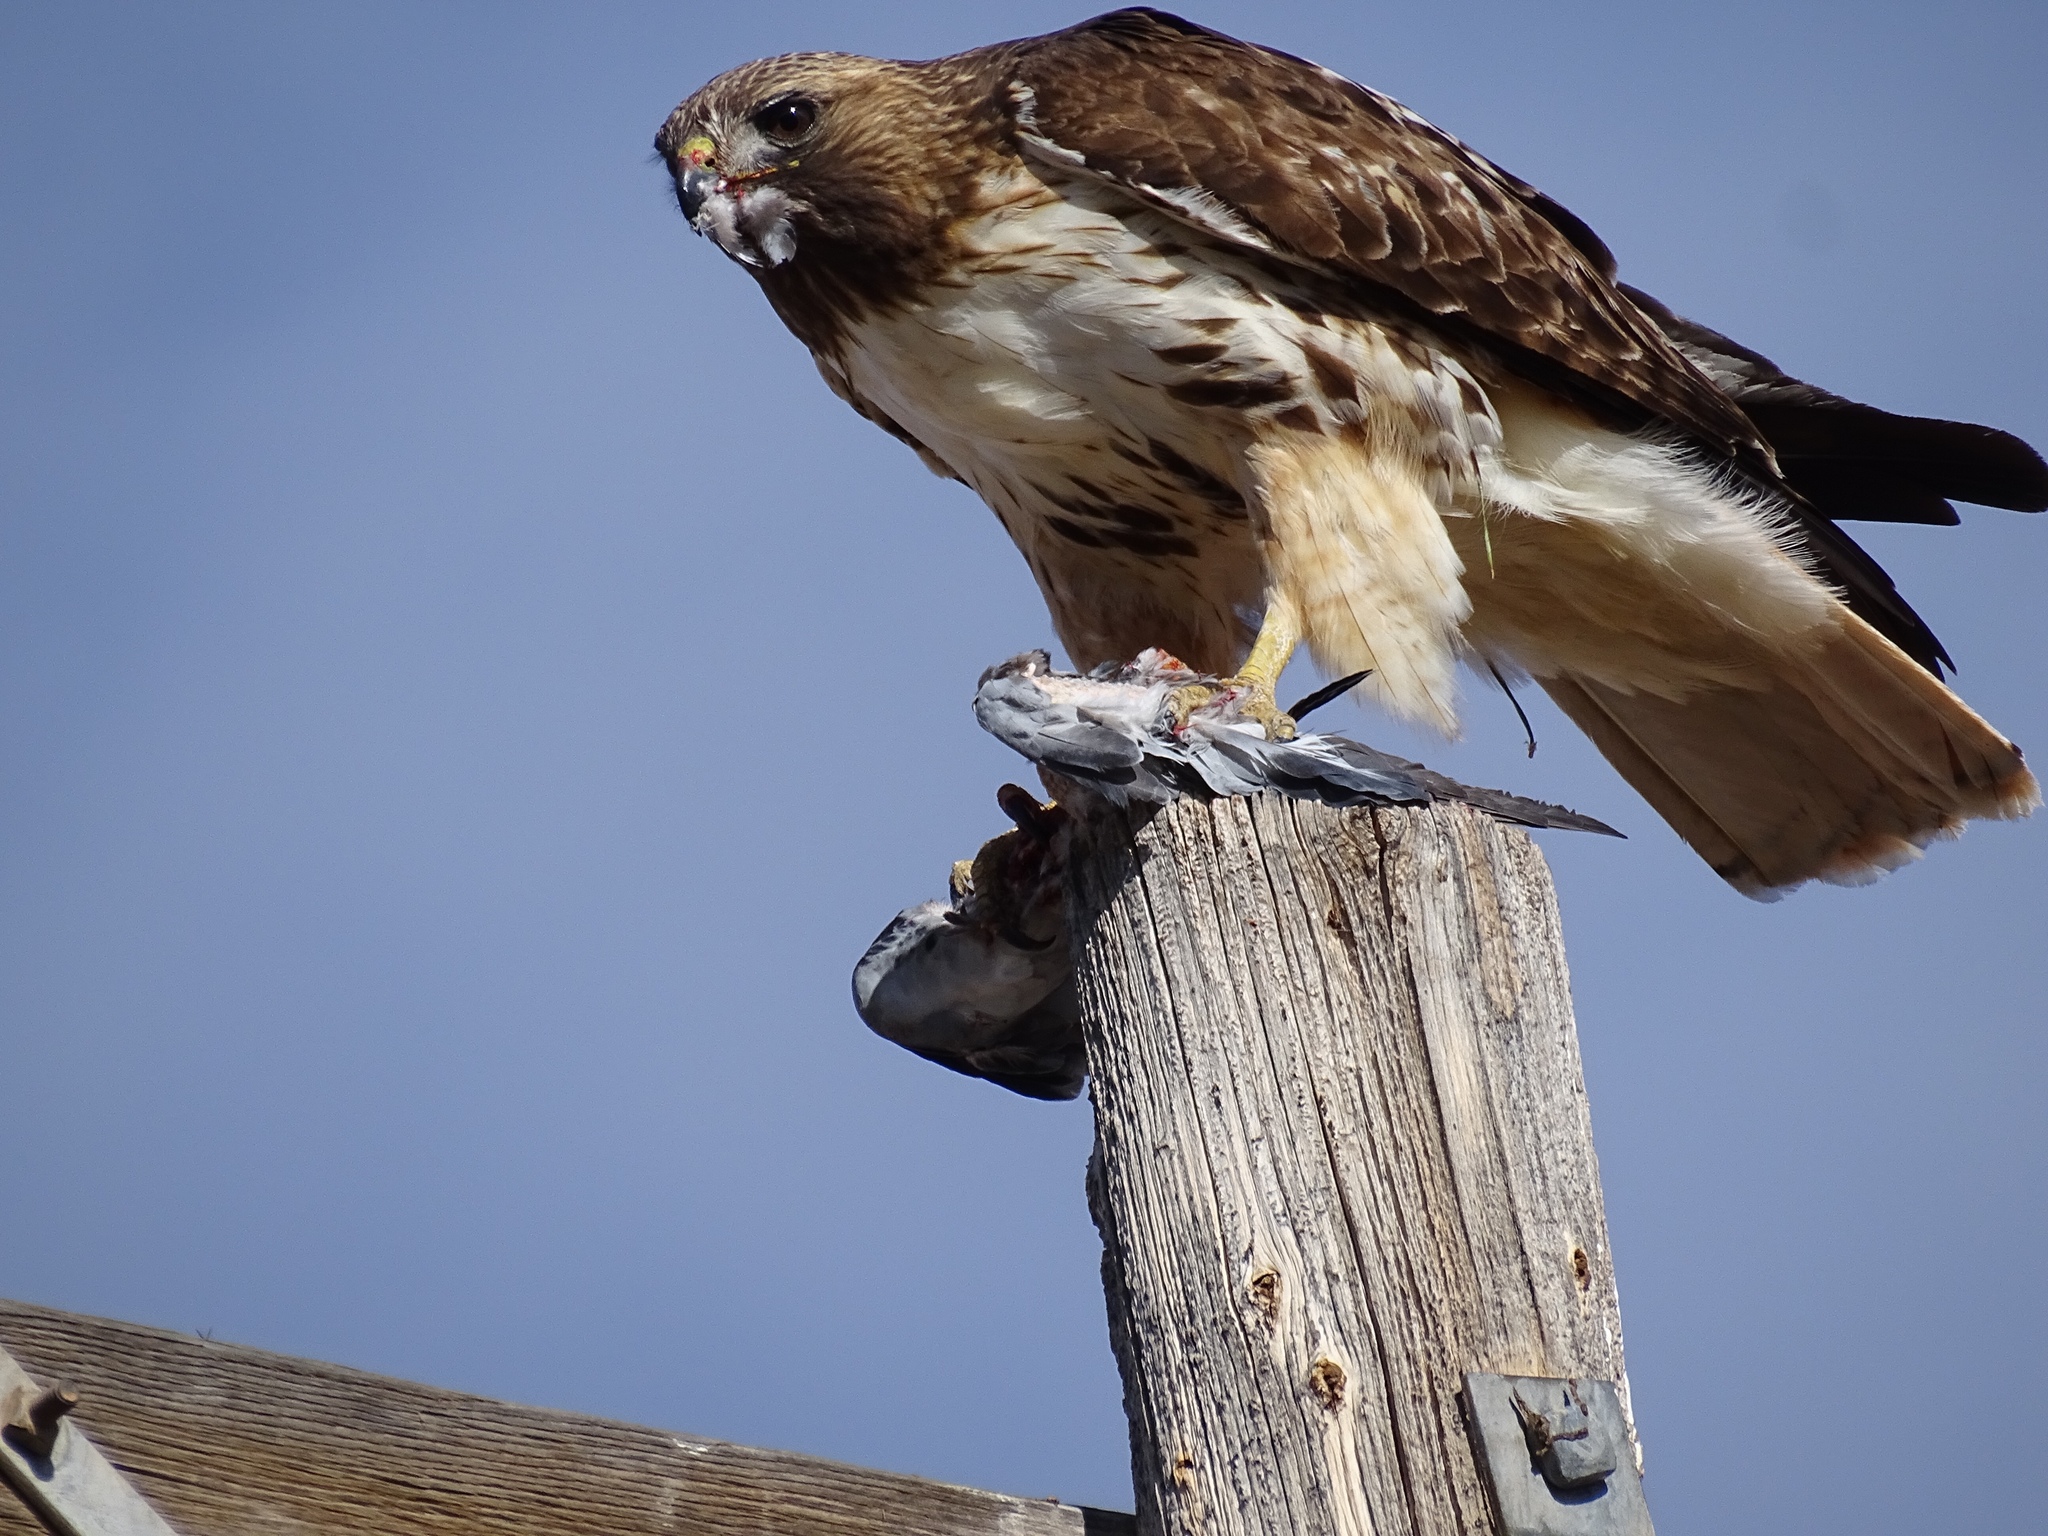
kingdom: Animalia
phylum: Chordata
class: Aves
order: Accipitriformes
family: Accipitridae
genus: Buteo
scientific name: Buteo jamaicensis
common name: Red-tailed hawk
